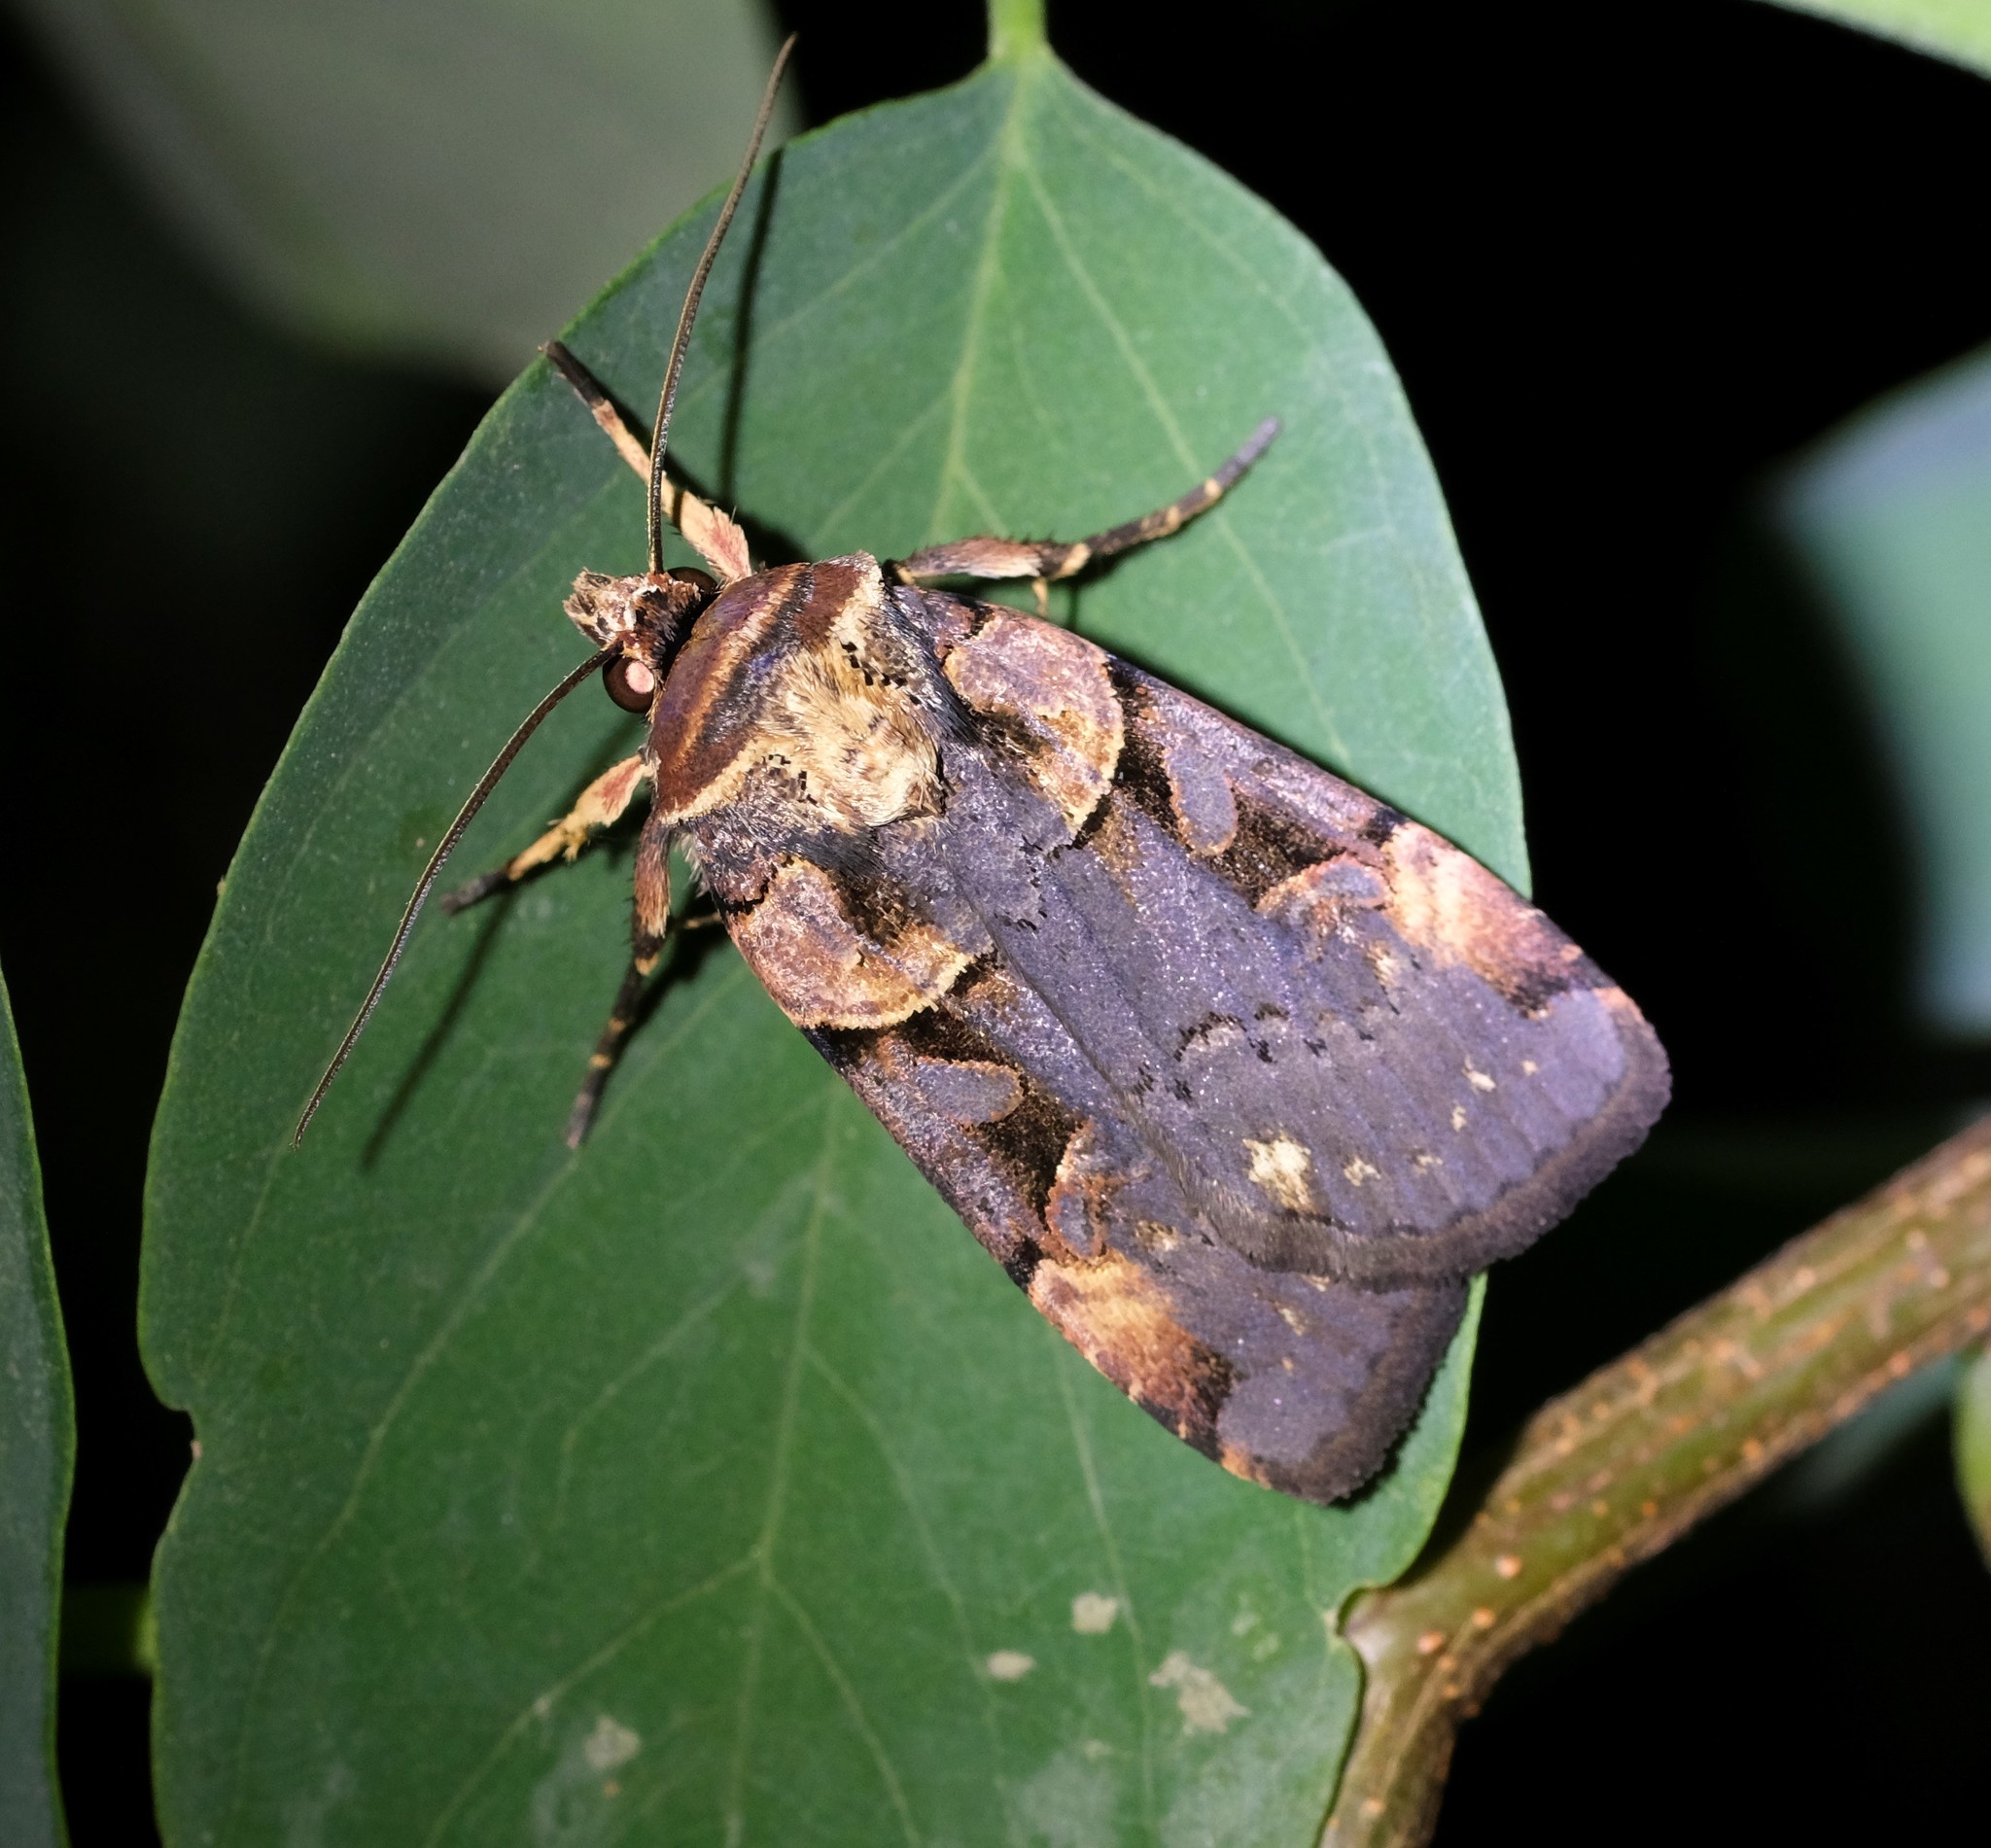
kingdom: Animalia
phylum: Arthropoda
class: Insecta
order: Lepidoptera
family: Noctuidae
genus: Pseudohermonassa
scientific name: Pseudohermonassa bicarnea
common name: Pink spotted dart
